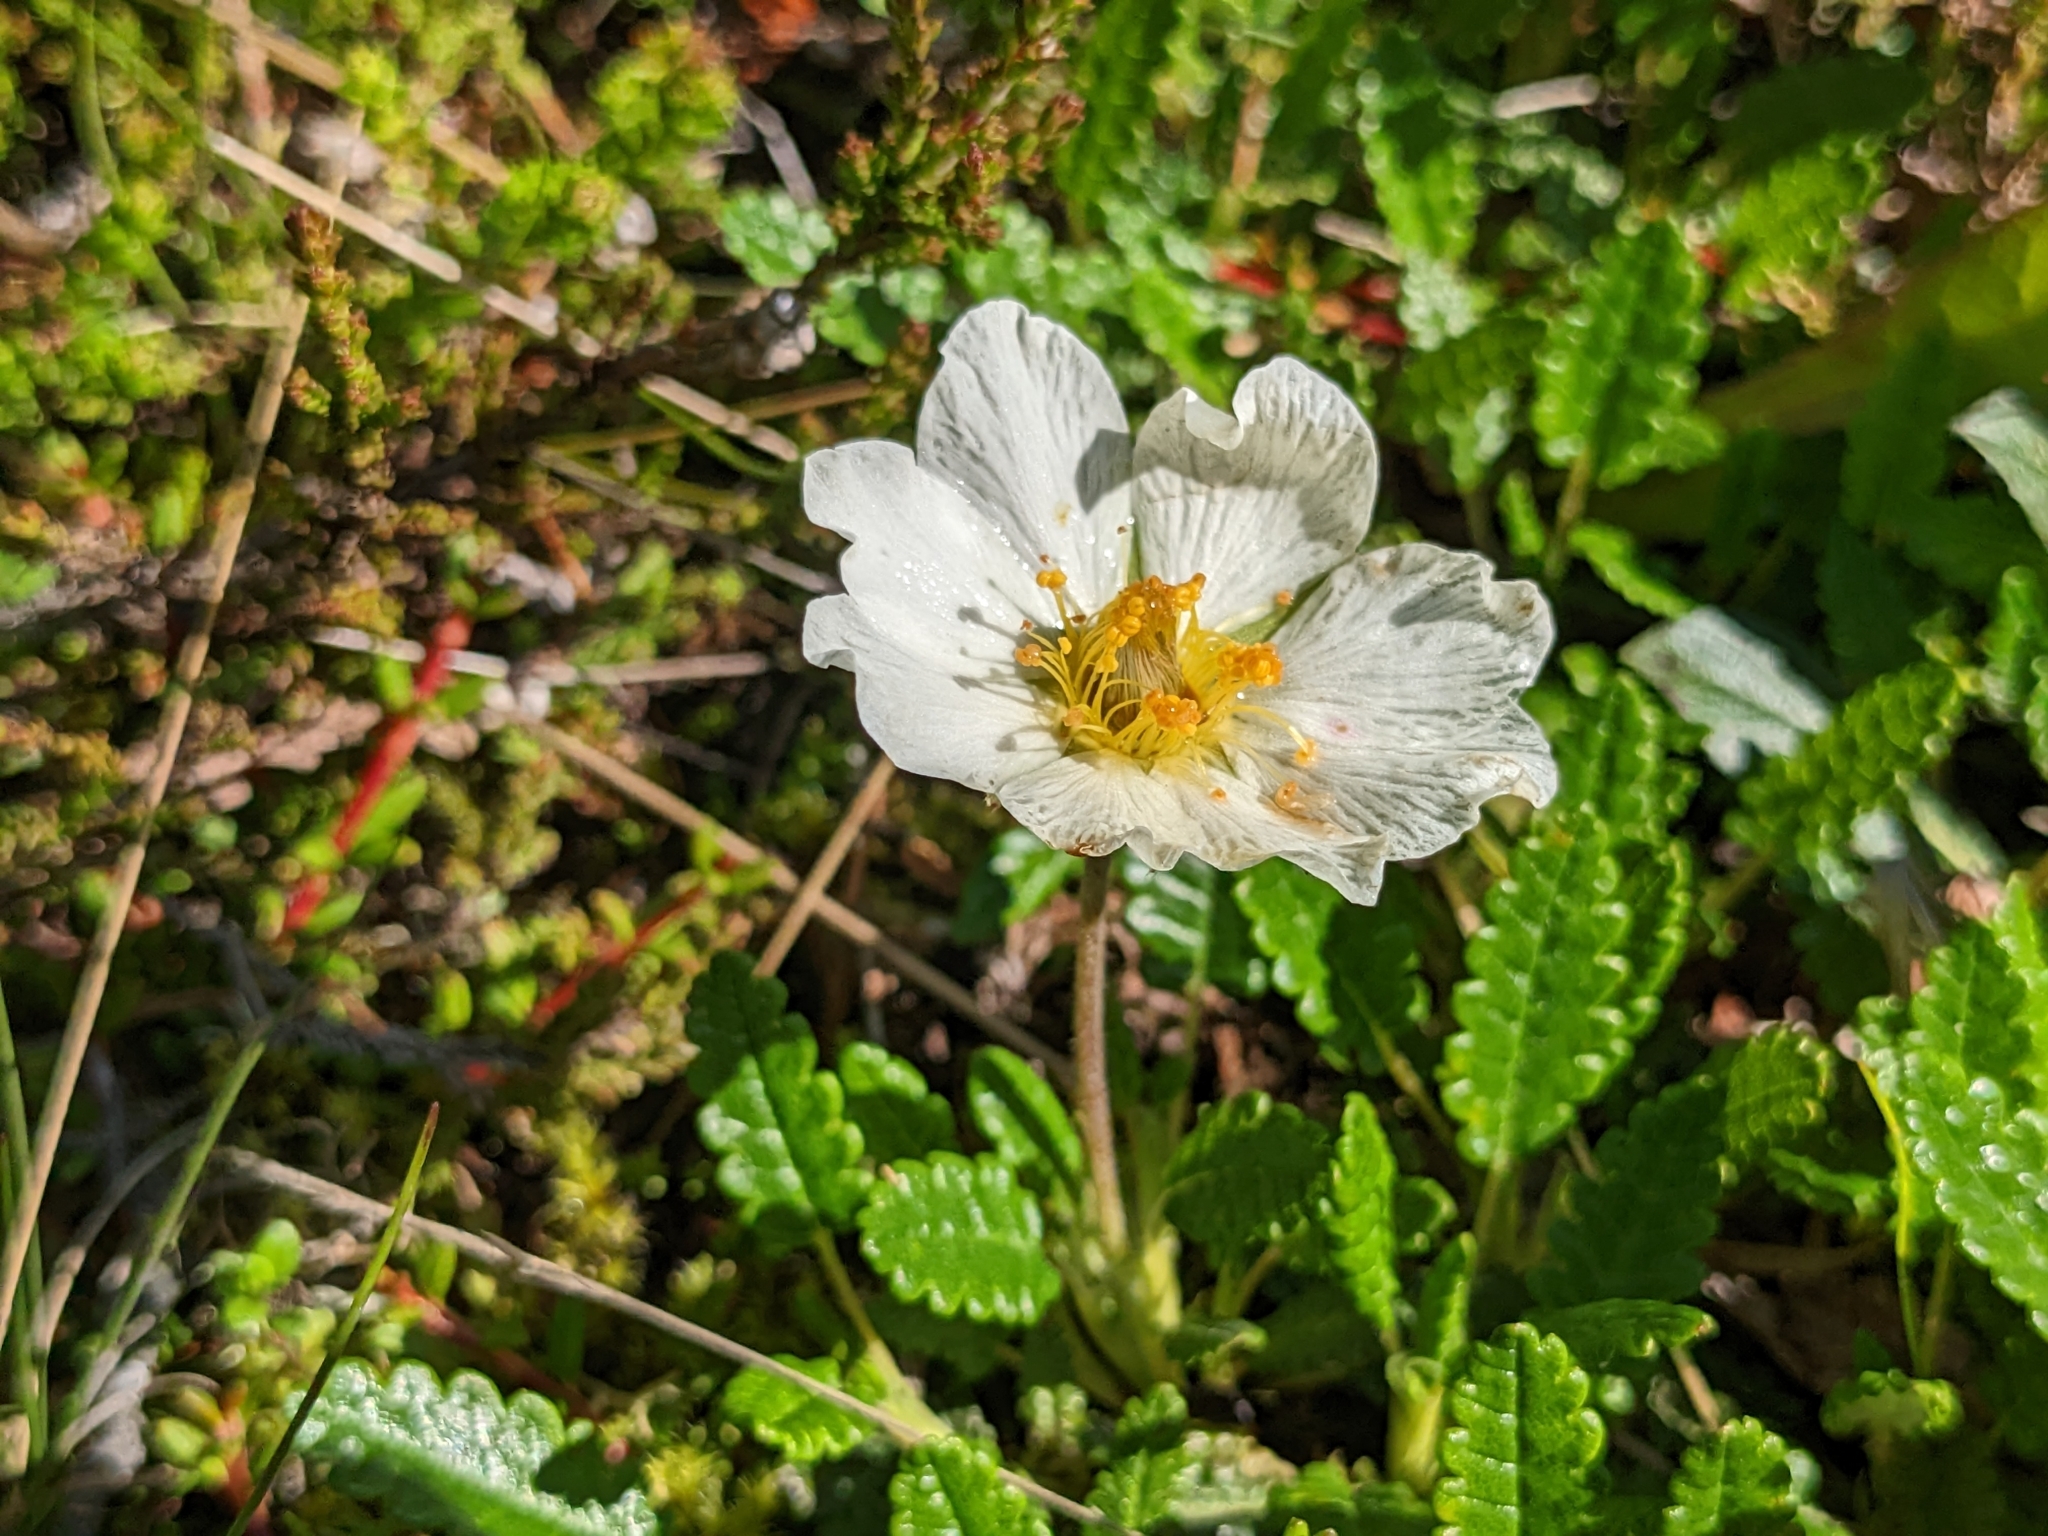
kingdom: Plantae
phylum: Tracheophyta
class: Magnoliopsida
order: Rosales
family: Rosaceae
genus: Dryas
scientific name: Dryas octopetala
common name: Eight-petal mountain-avens
